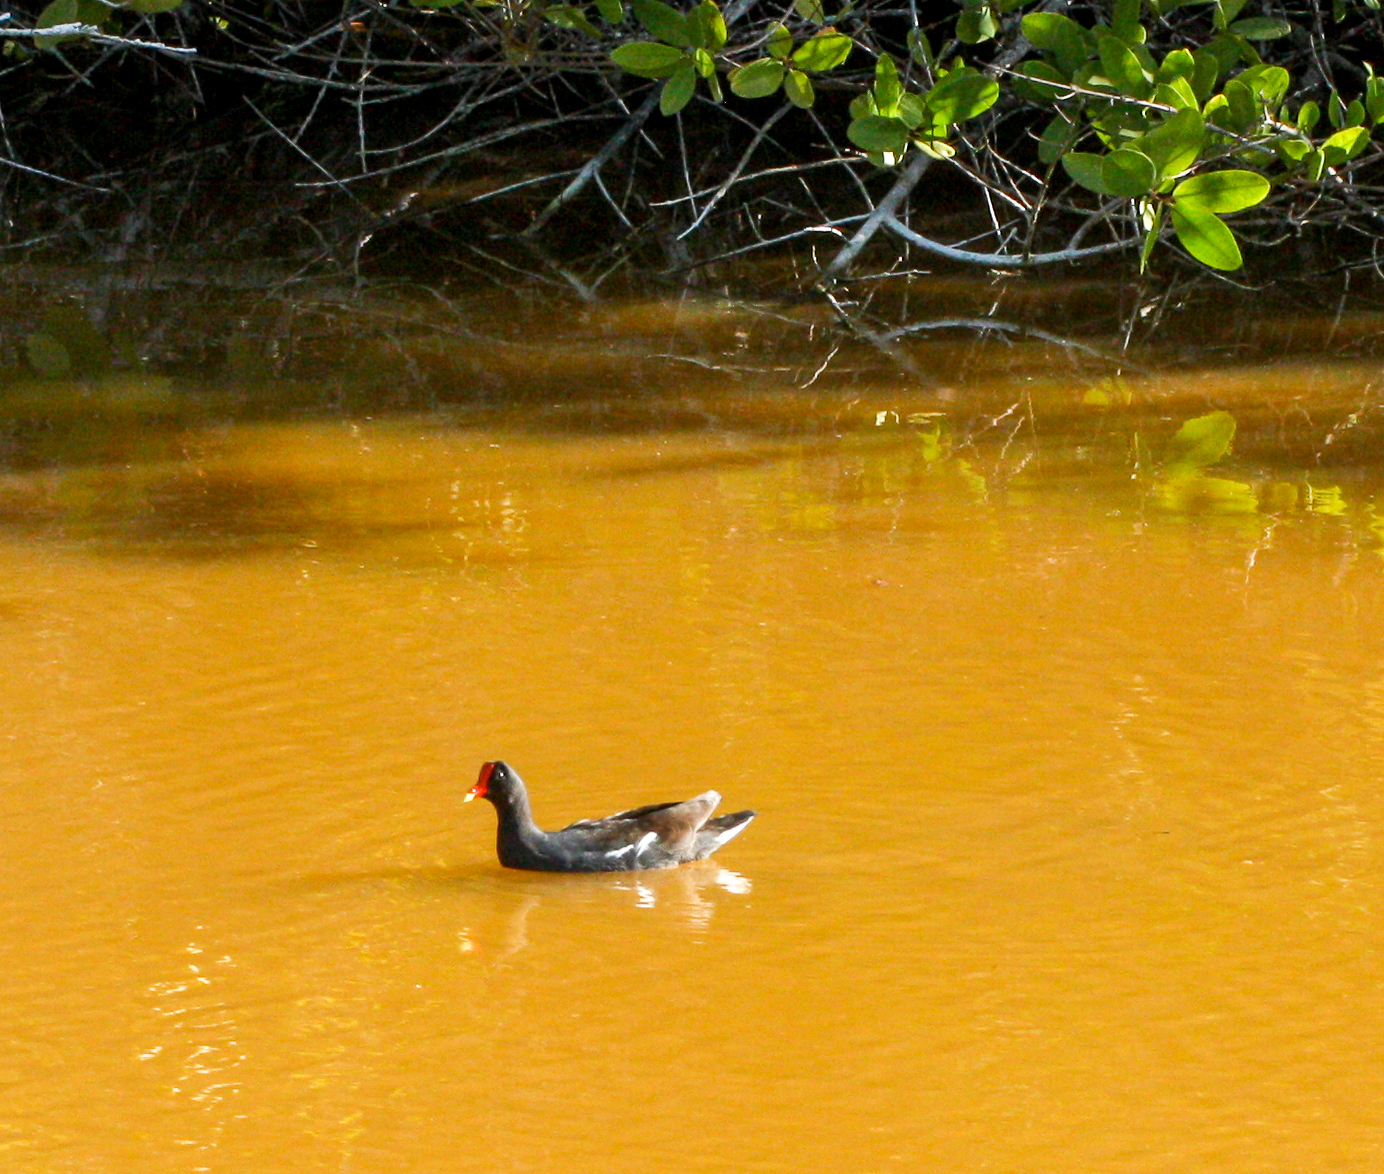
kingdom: Animalia
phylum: Chordata
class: Aves
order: Gruiformes
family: Rallidae
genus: Gallinula
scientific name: Gallinula chloropus
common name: Common moorhen
